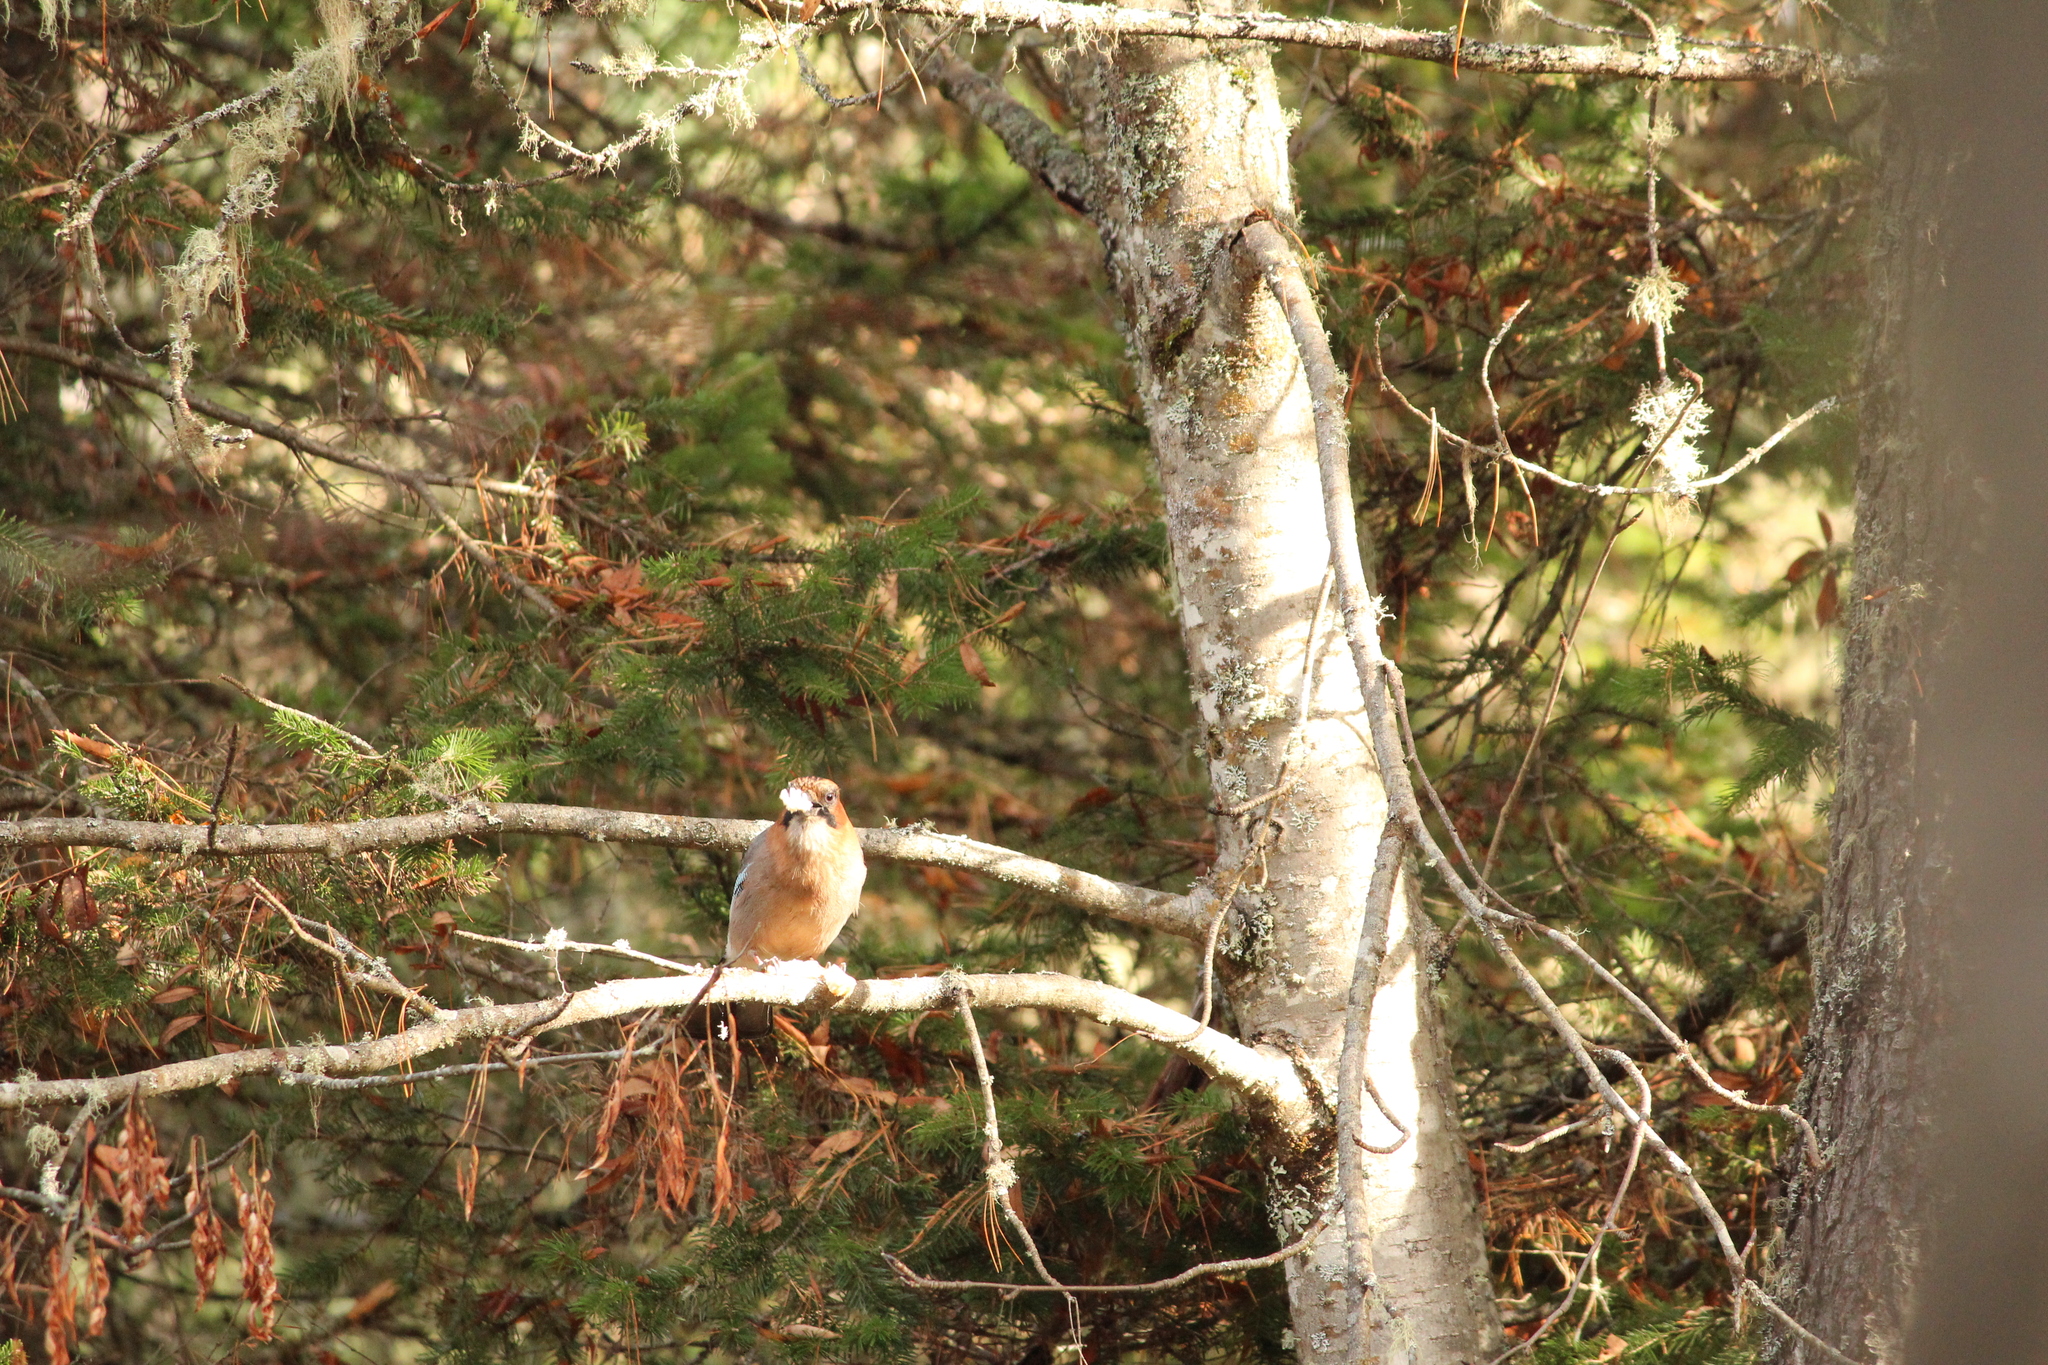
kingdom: Animalia
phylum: Chordata
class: Aves
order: Passeriformes
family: Corvidae
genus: Garrulus
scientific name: Garrulus glandarius
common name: Eurasian jay
